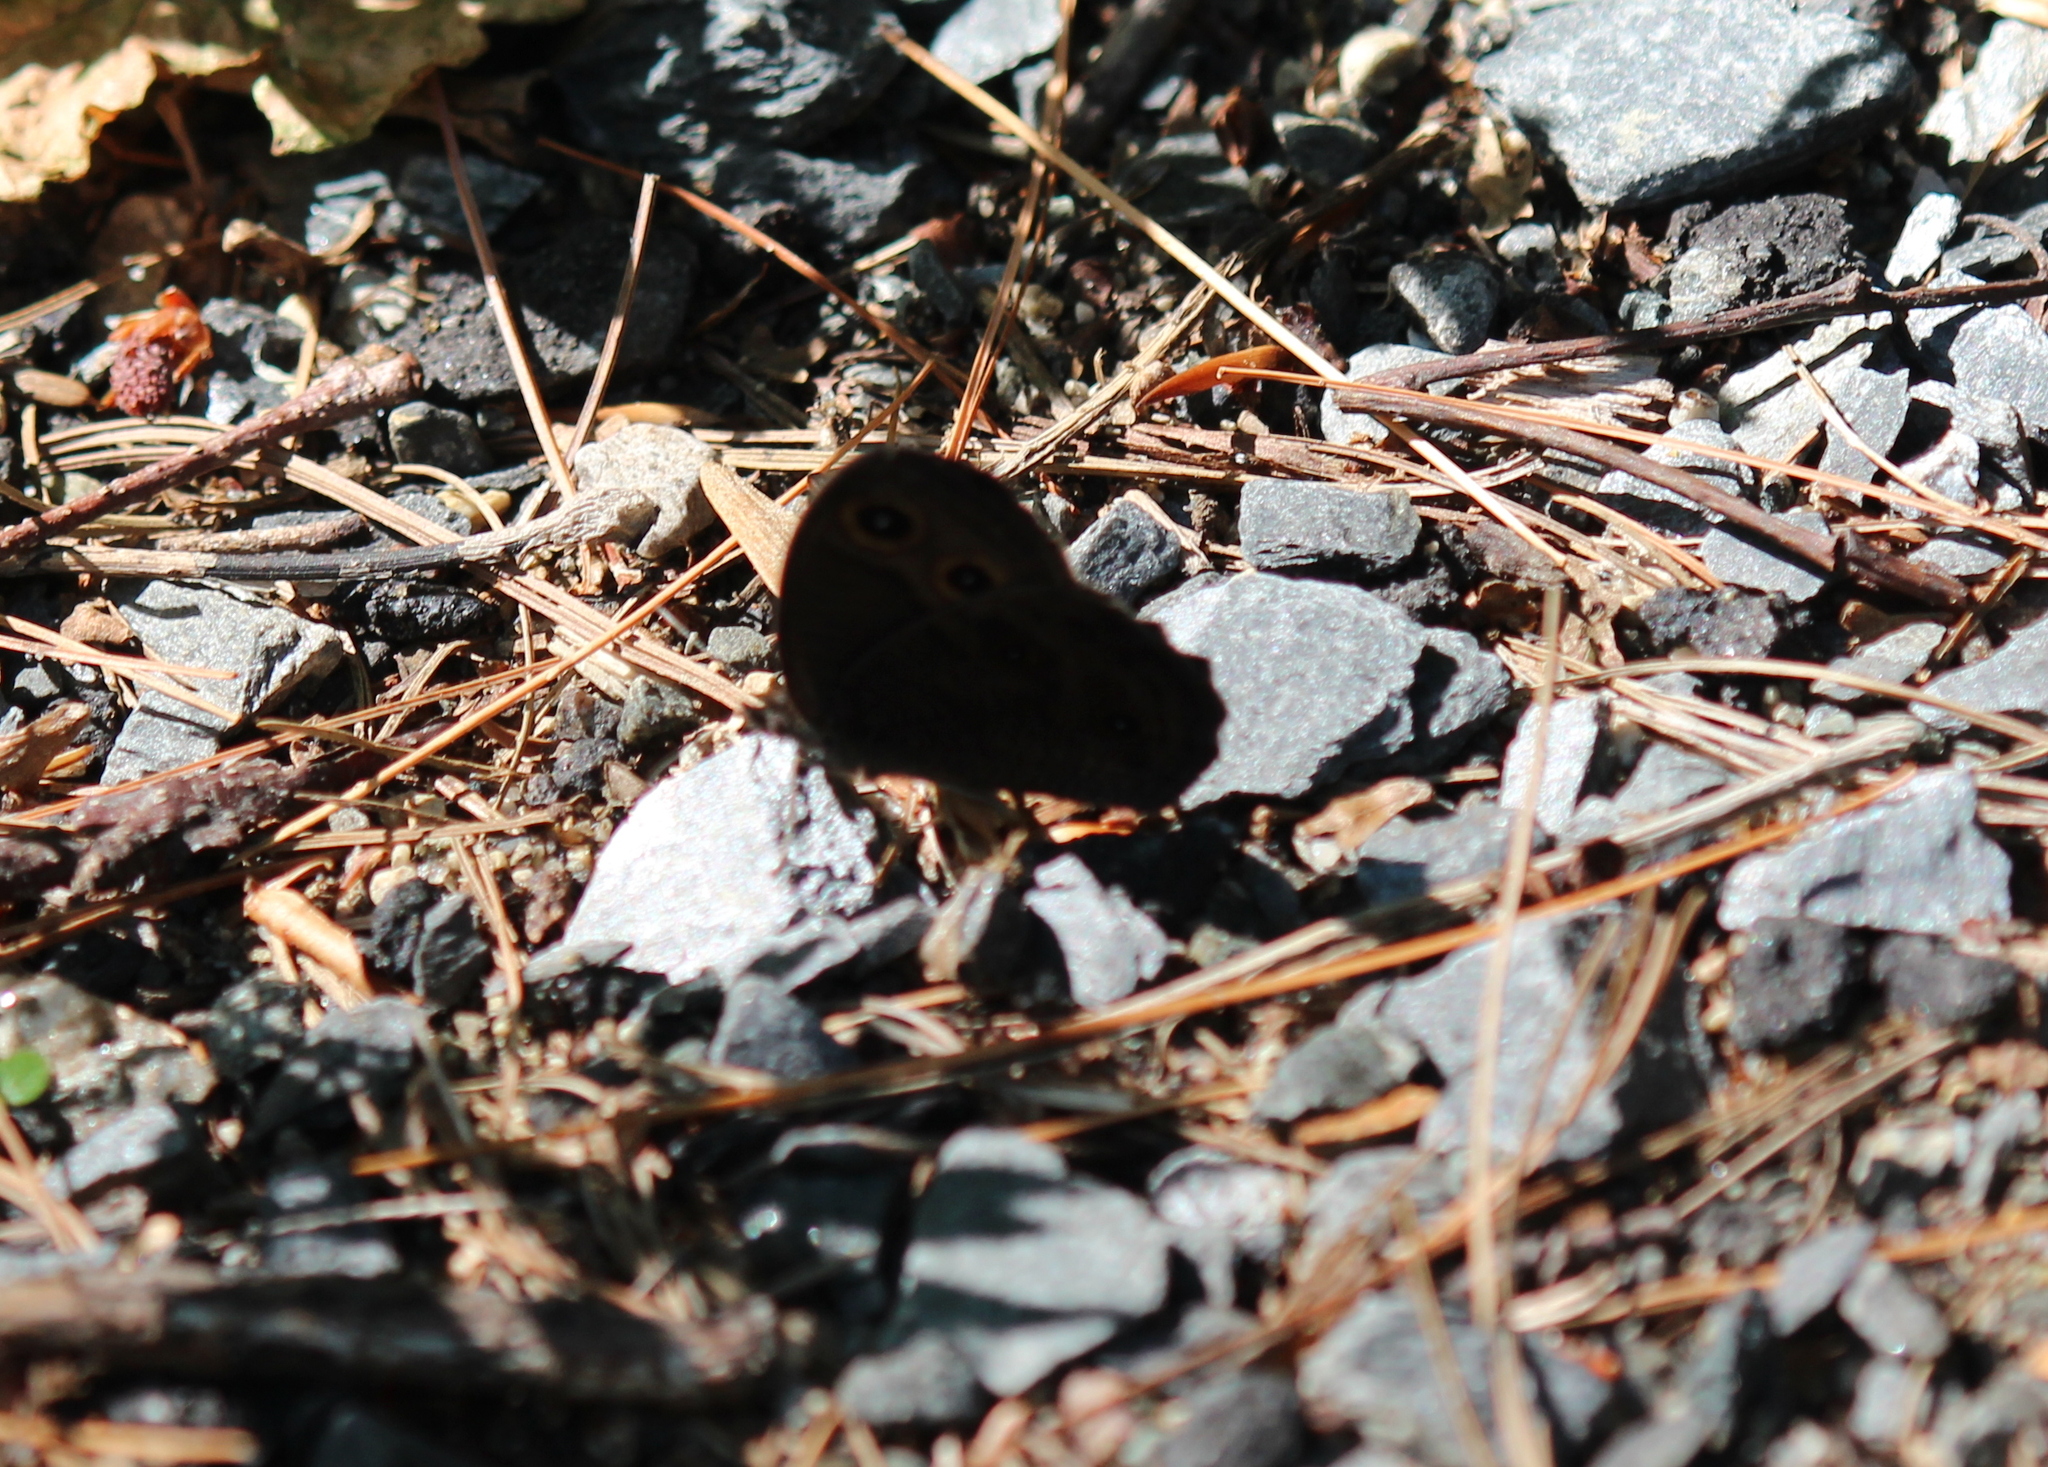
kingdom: Animalia
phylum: Arthropoda
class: Insecta
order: Lepidoptera
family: Nymphalidae
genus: Cercyonis
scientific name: Cercyonis pegala
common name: Common wood-nymph
